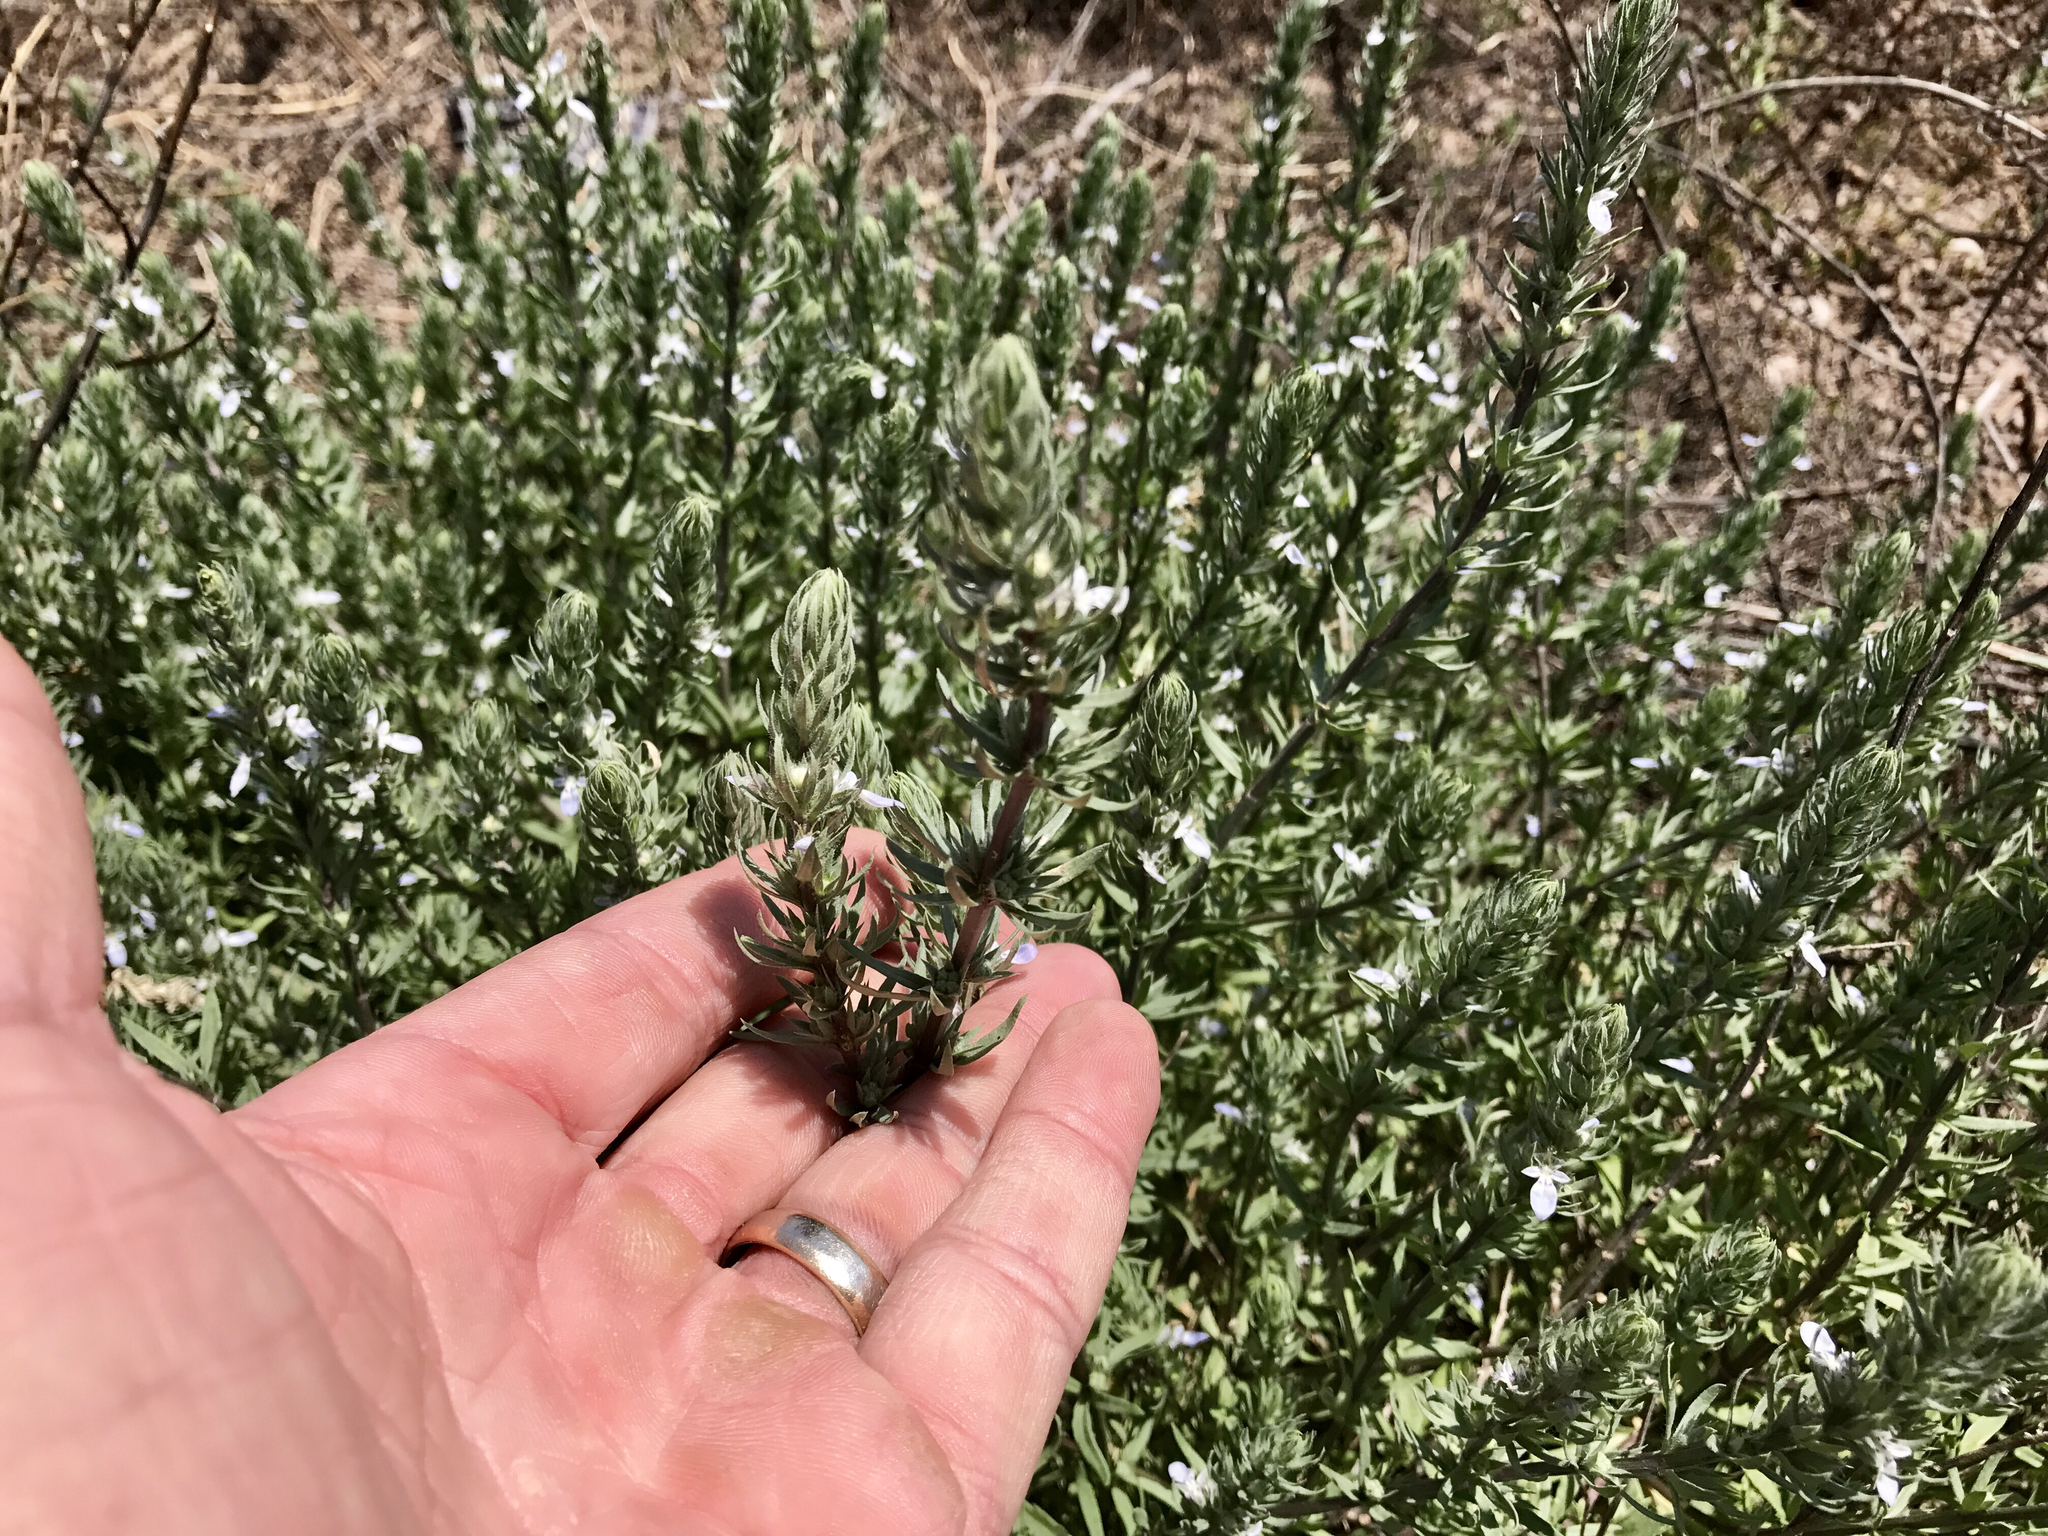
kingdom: Plantae
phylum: Tracheophyta
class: Magnoliopsida
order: Lamiales
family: Lamiaceae
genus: Teucrium
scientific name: Teucrium cubense
